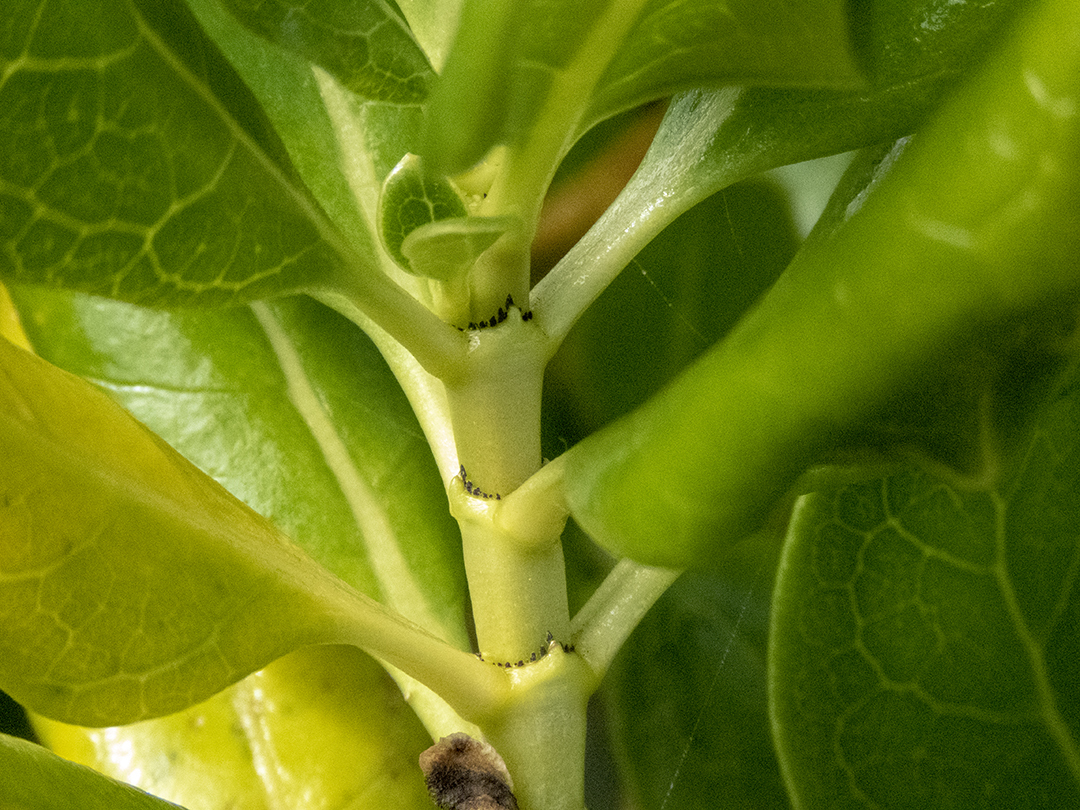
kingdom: Plantae
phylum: Tracheophyta
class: Magnoliopsida
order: Gentianales
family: Rubiaceae
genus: Coprosma
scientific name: Coprosma repens
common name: Tree bedstraw
